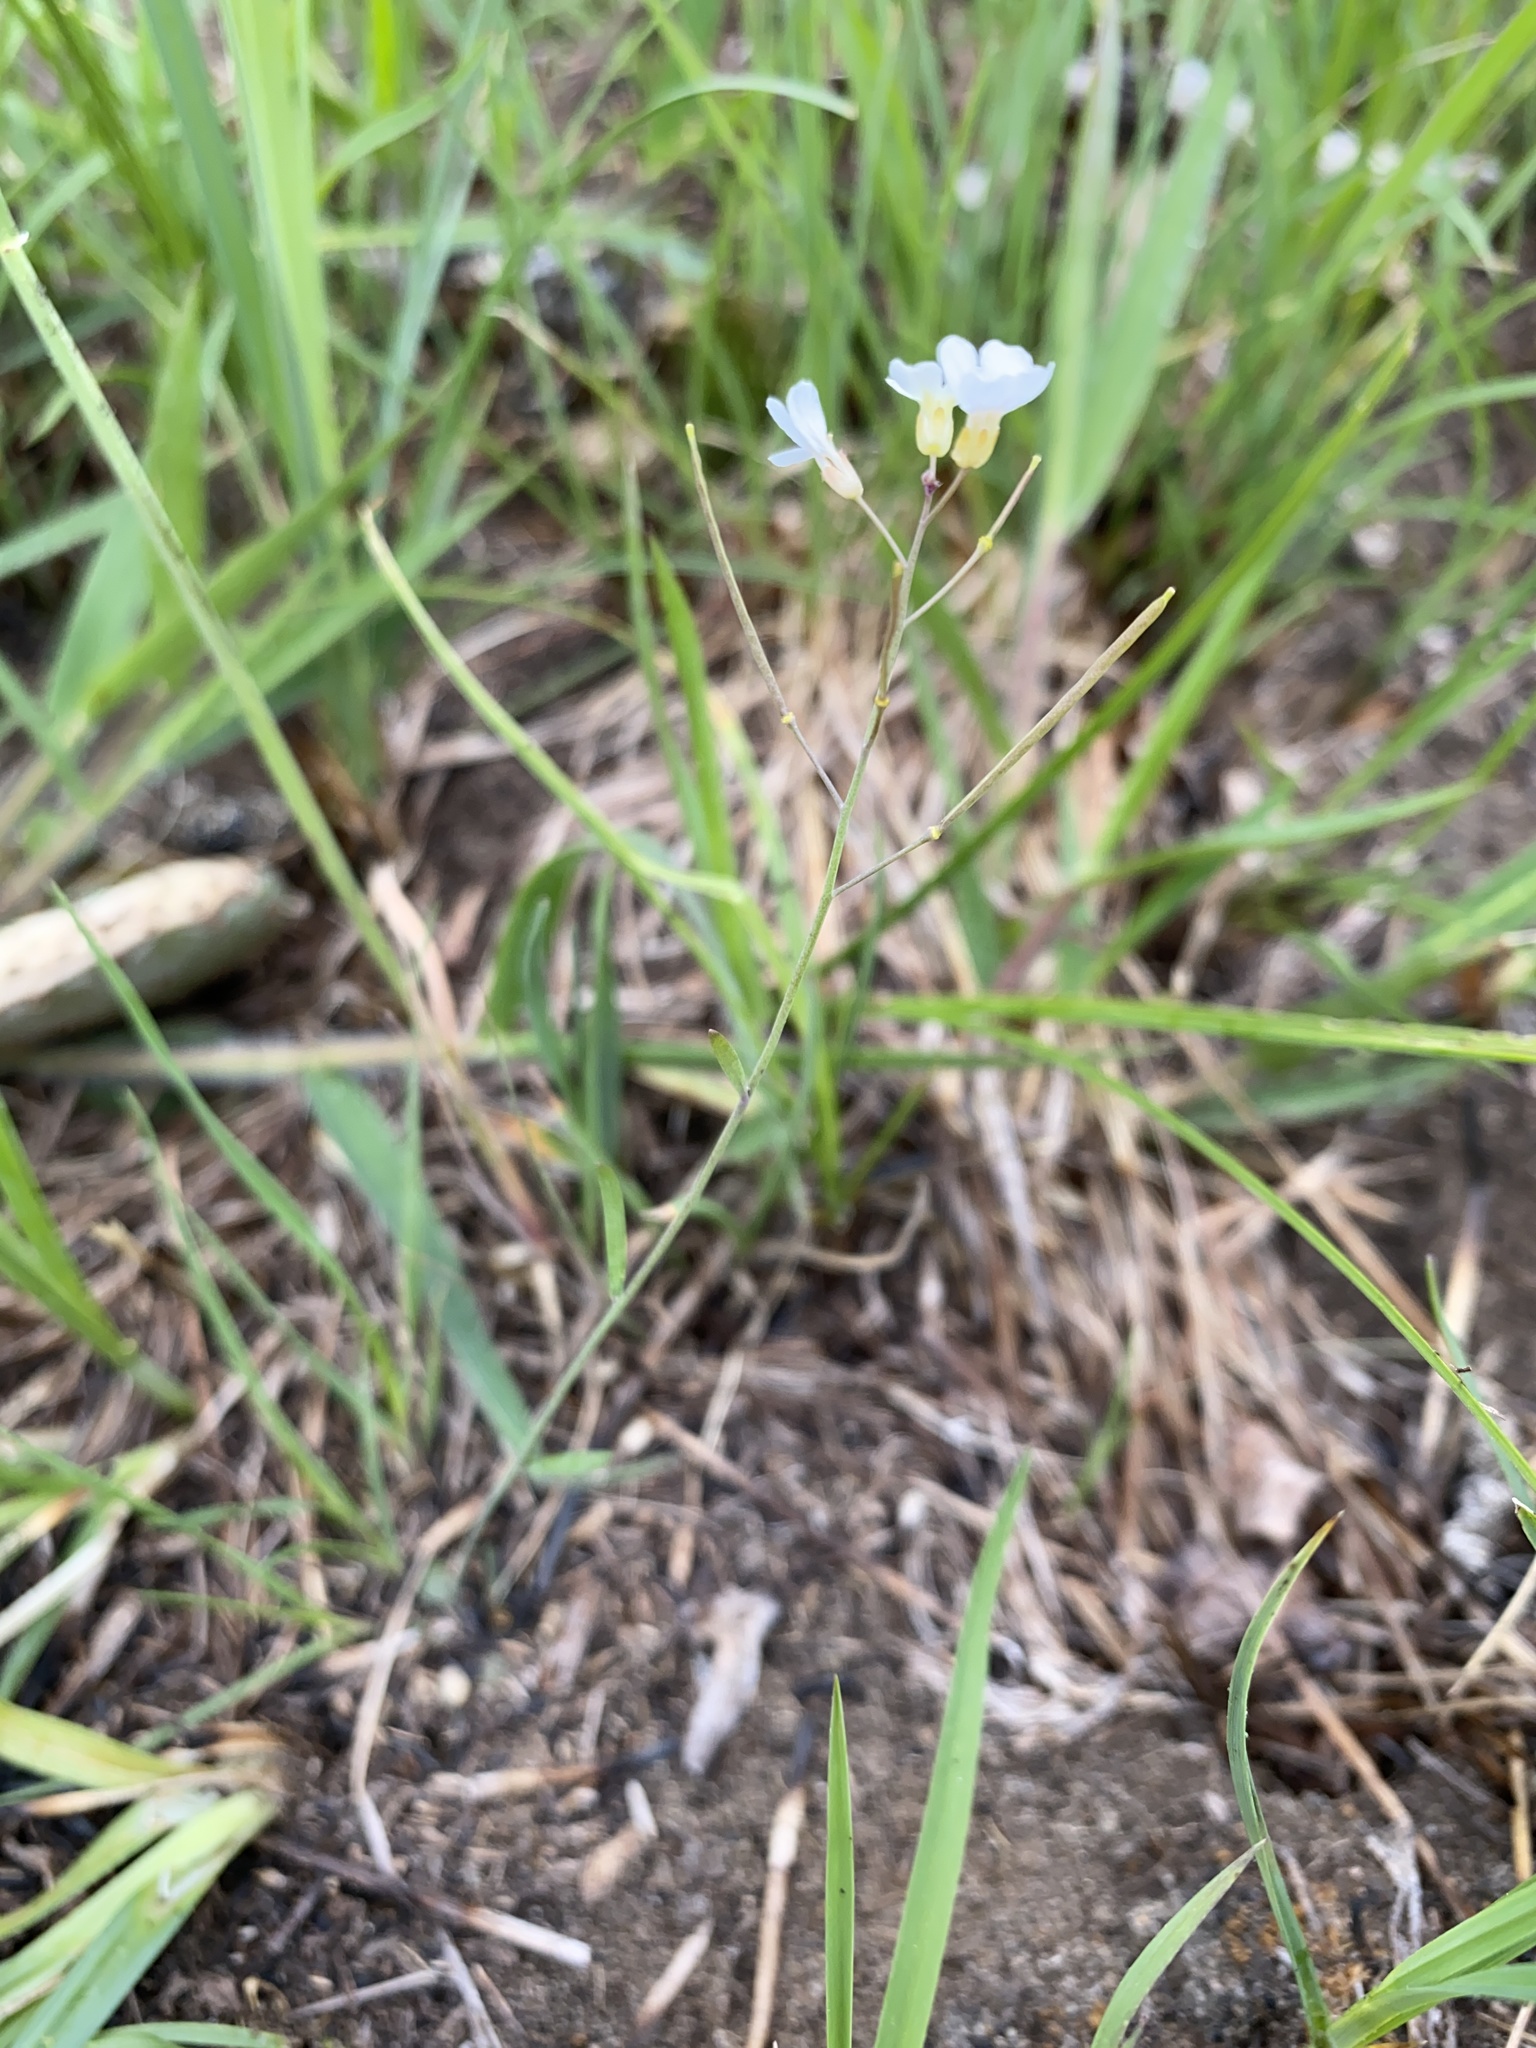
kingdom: Plantae
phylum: Tracheophyta
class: Magnoliopsida
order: Brassicales
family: Brassicaceae
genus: Arabidopsis
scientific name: Arabidopsis lyrata
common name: Lyrate rockcress
